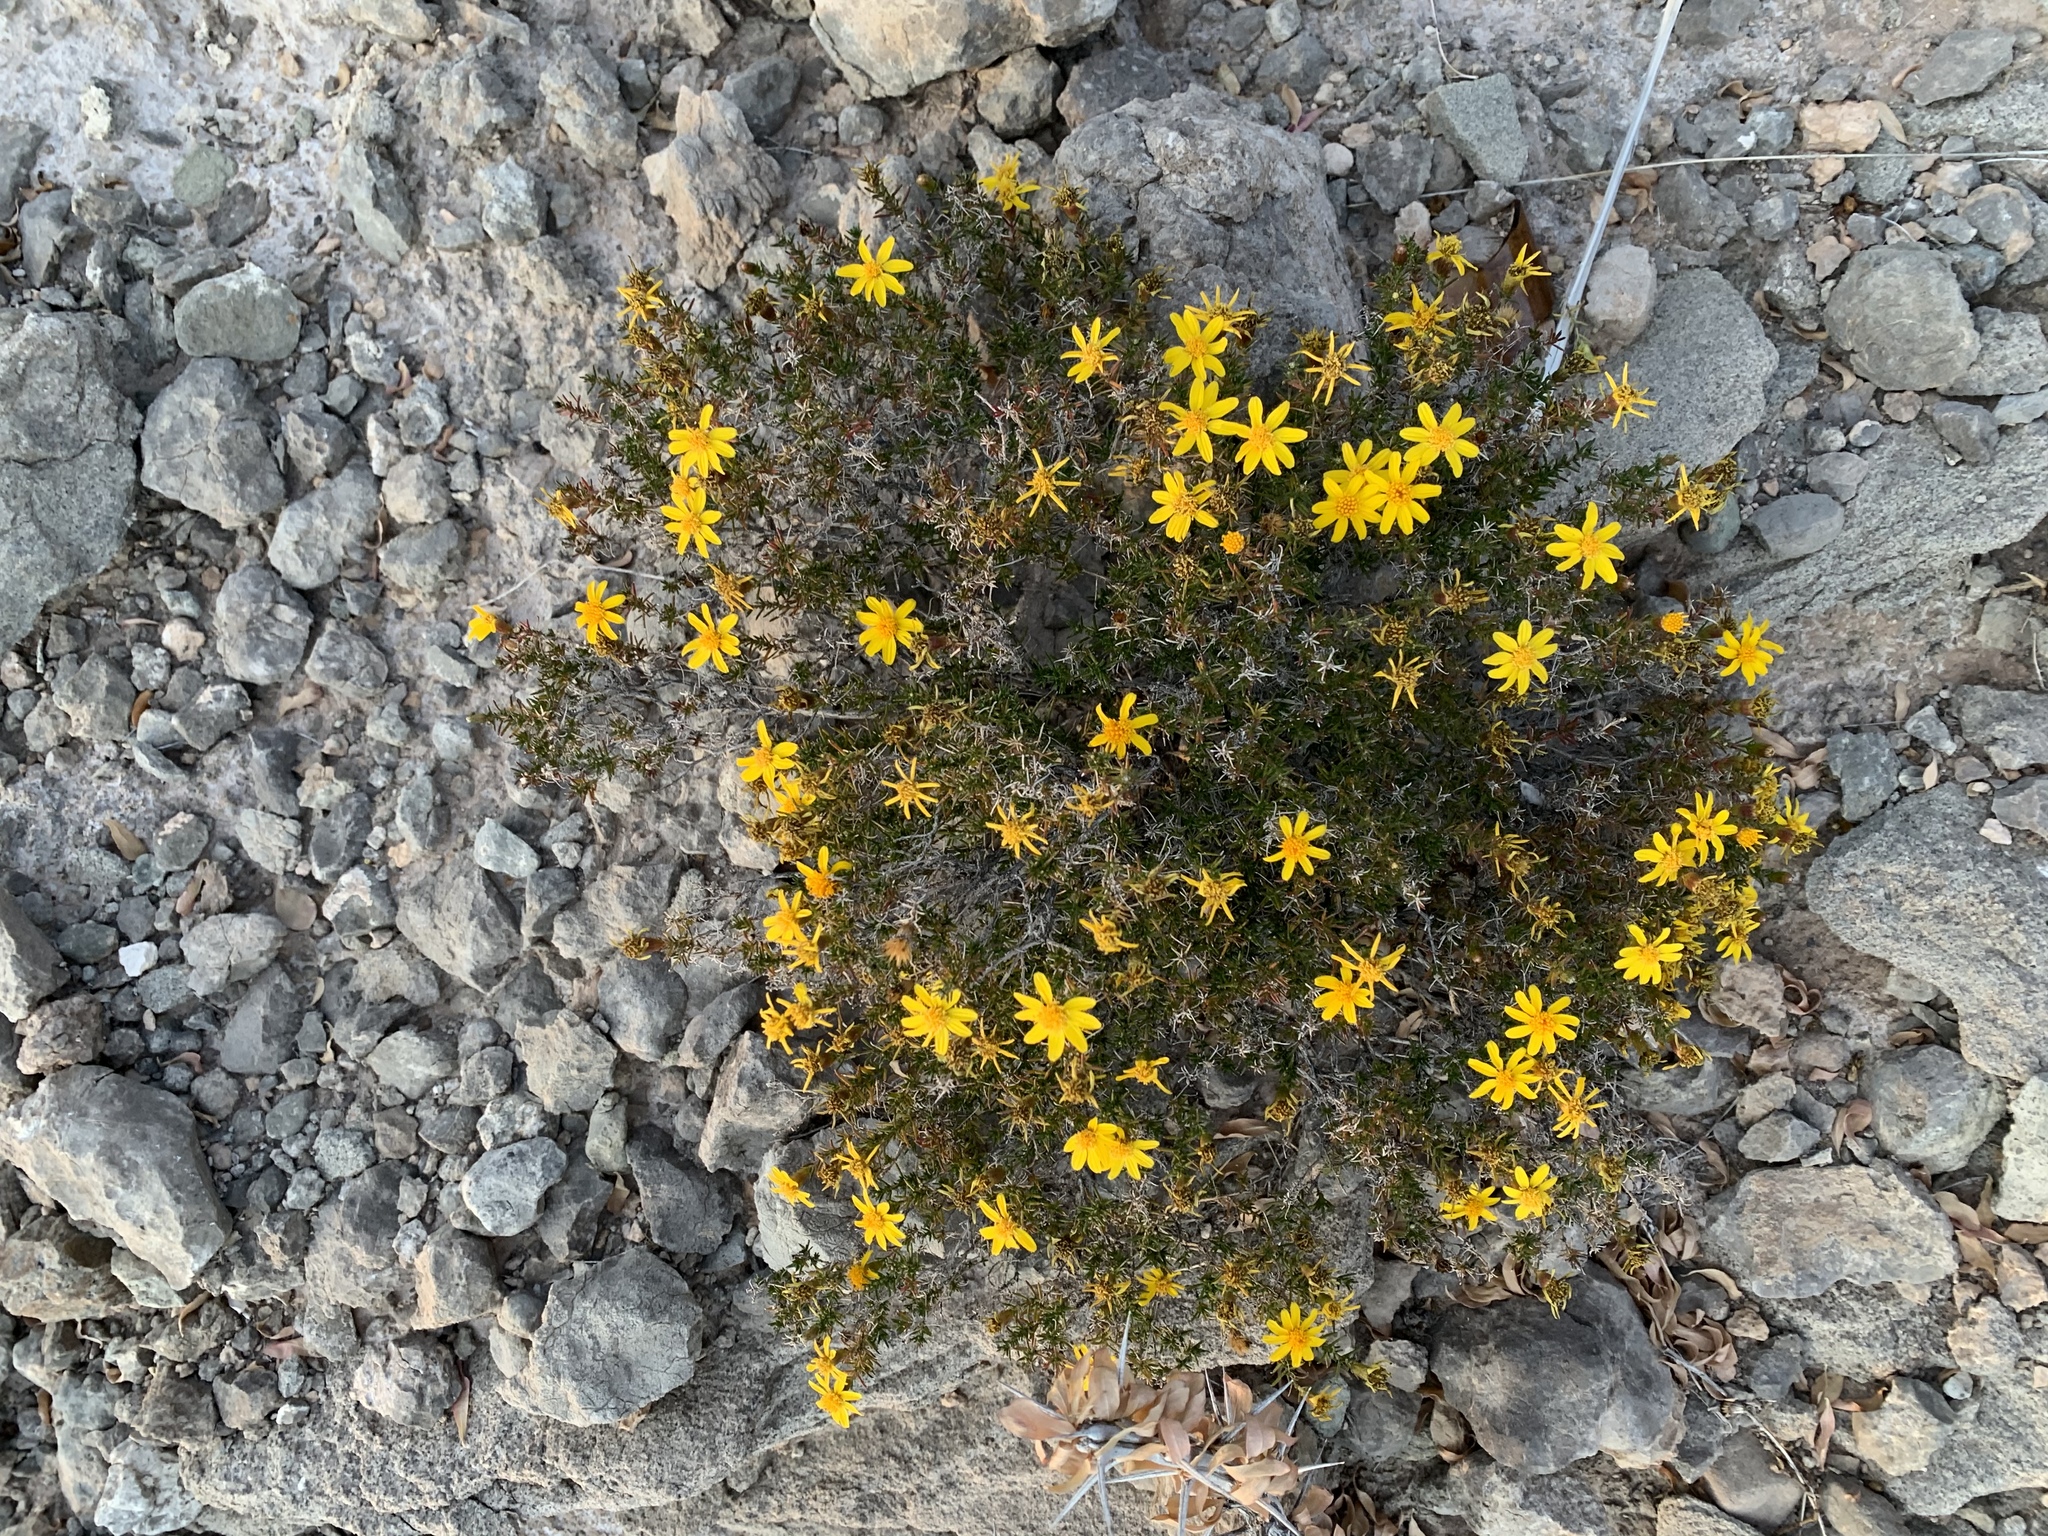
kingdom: Plantae
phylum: Tracheophyta
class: Magnoliopsida
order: Asterales
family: Asteraceae
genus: Thymophylla
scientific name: Thymophylla acerosa
